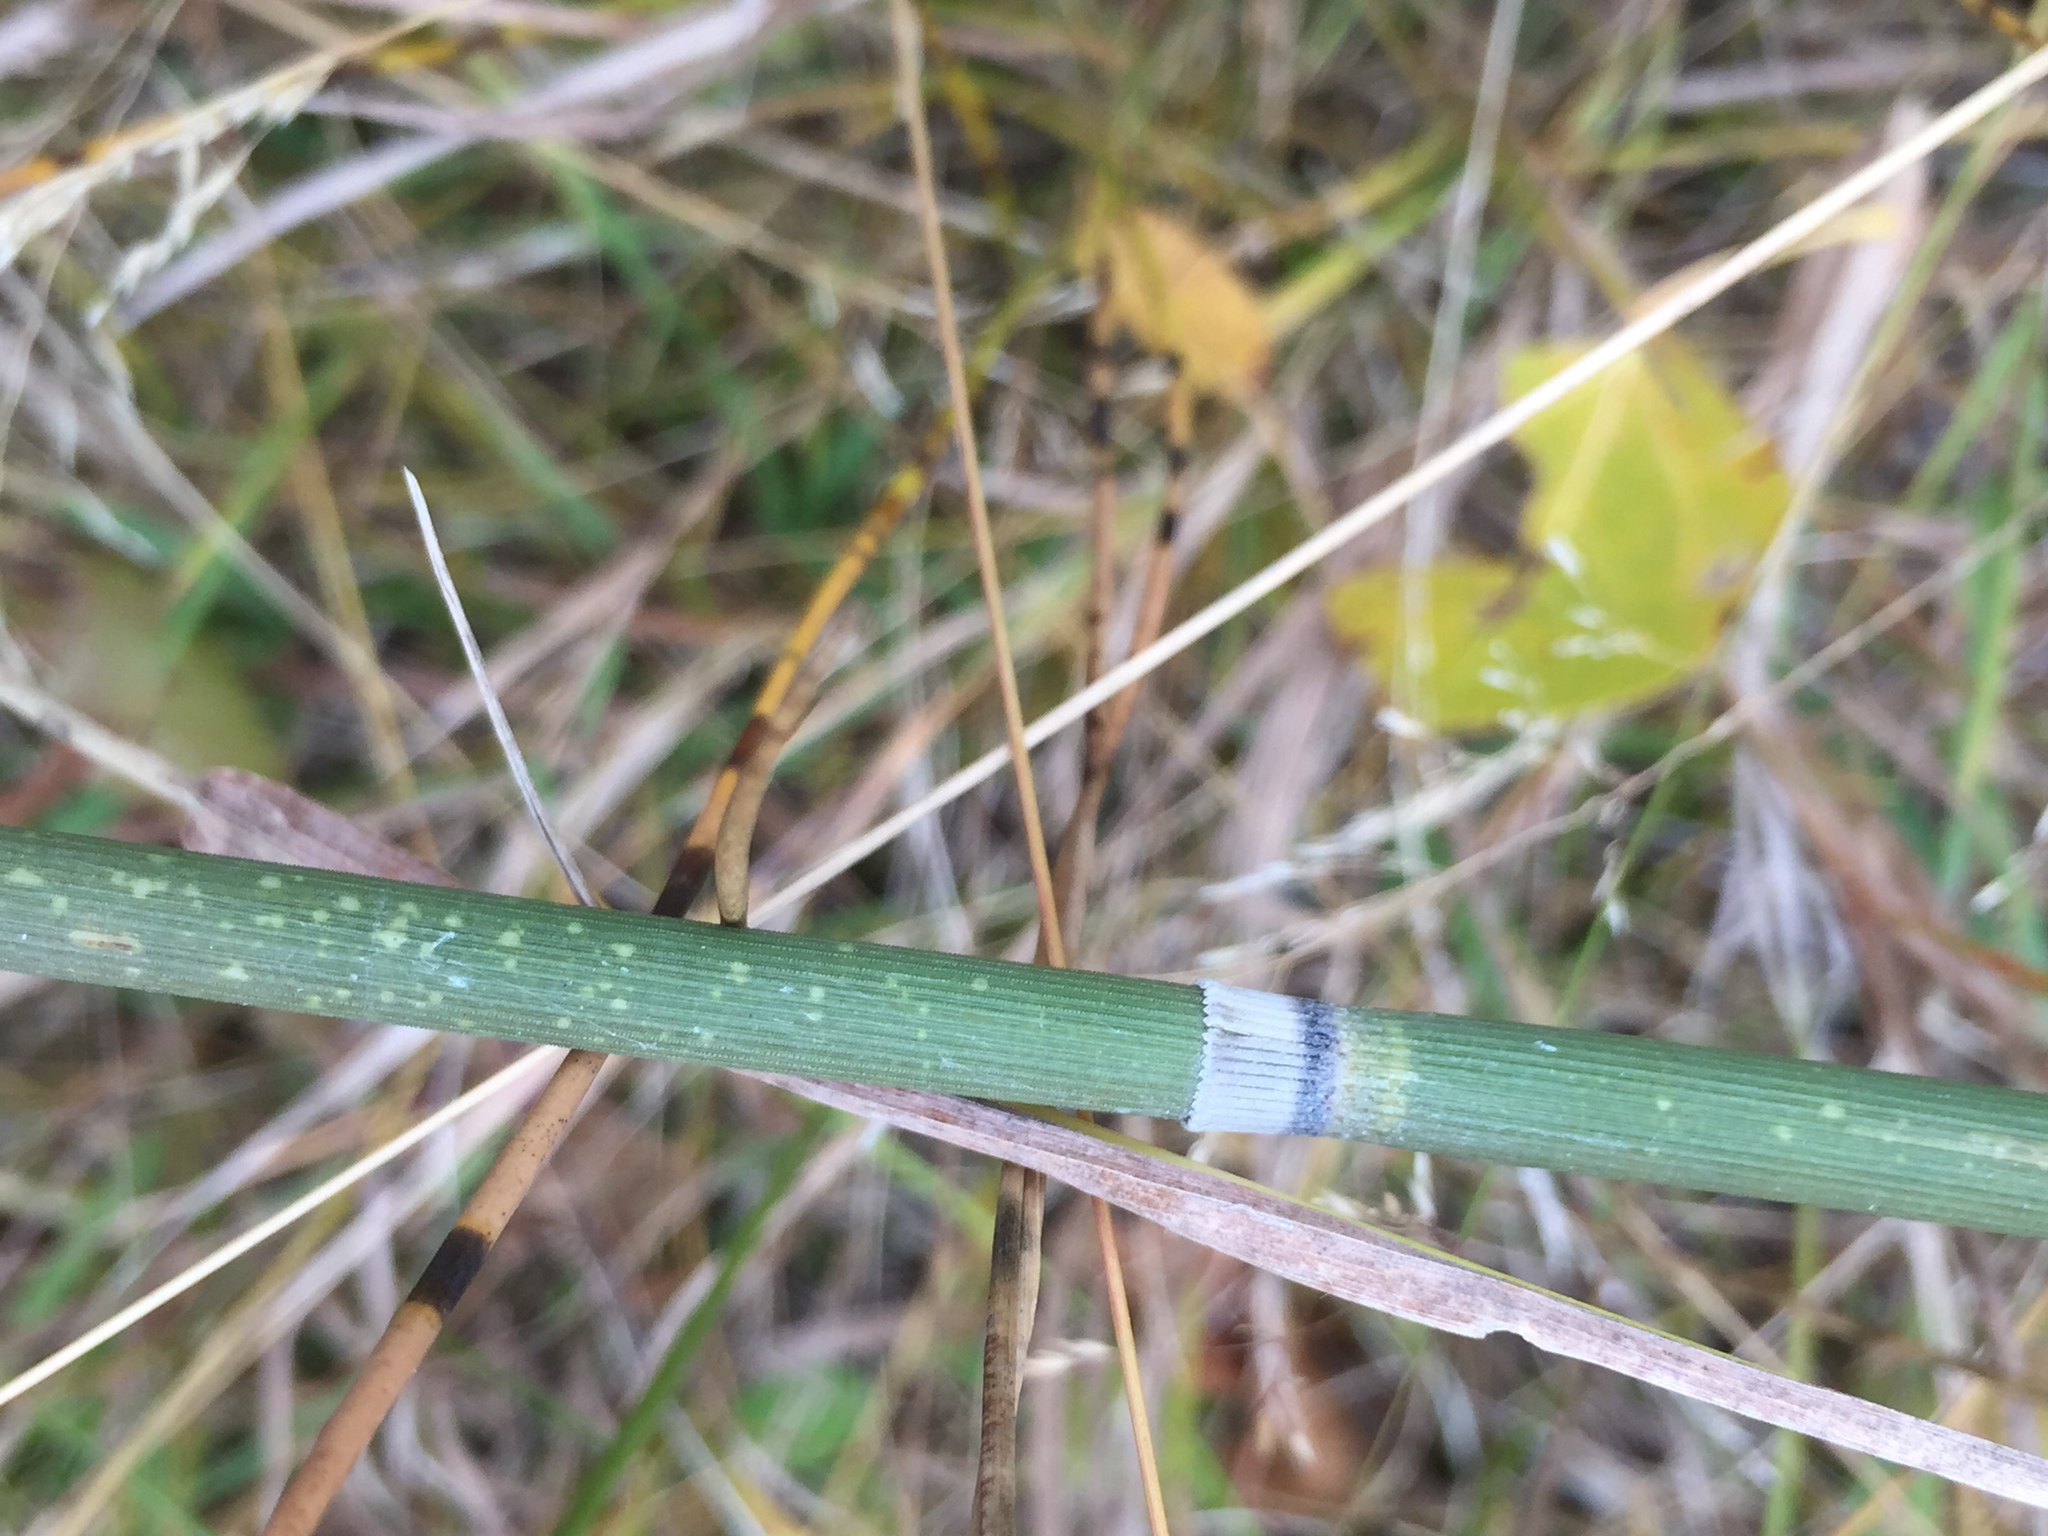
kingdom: Plantae
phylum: Tracheophyta
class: Polypodiopsida
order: Equisetales
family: Equisetaceae
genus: Equisetum
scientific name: Equisetum hyemale
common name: Rough horsetail
